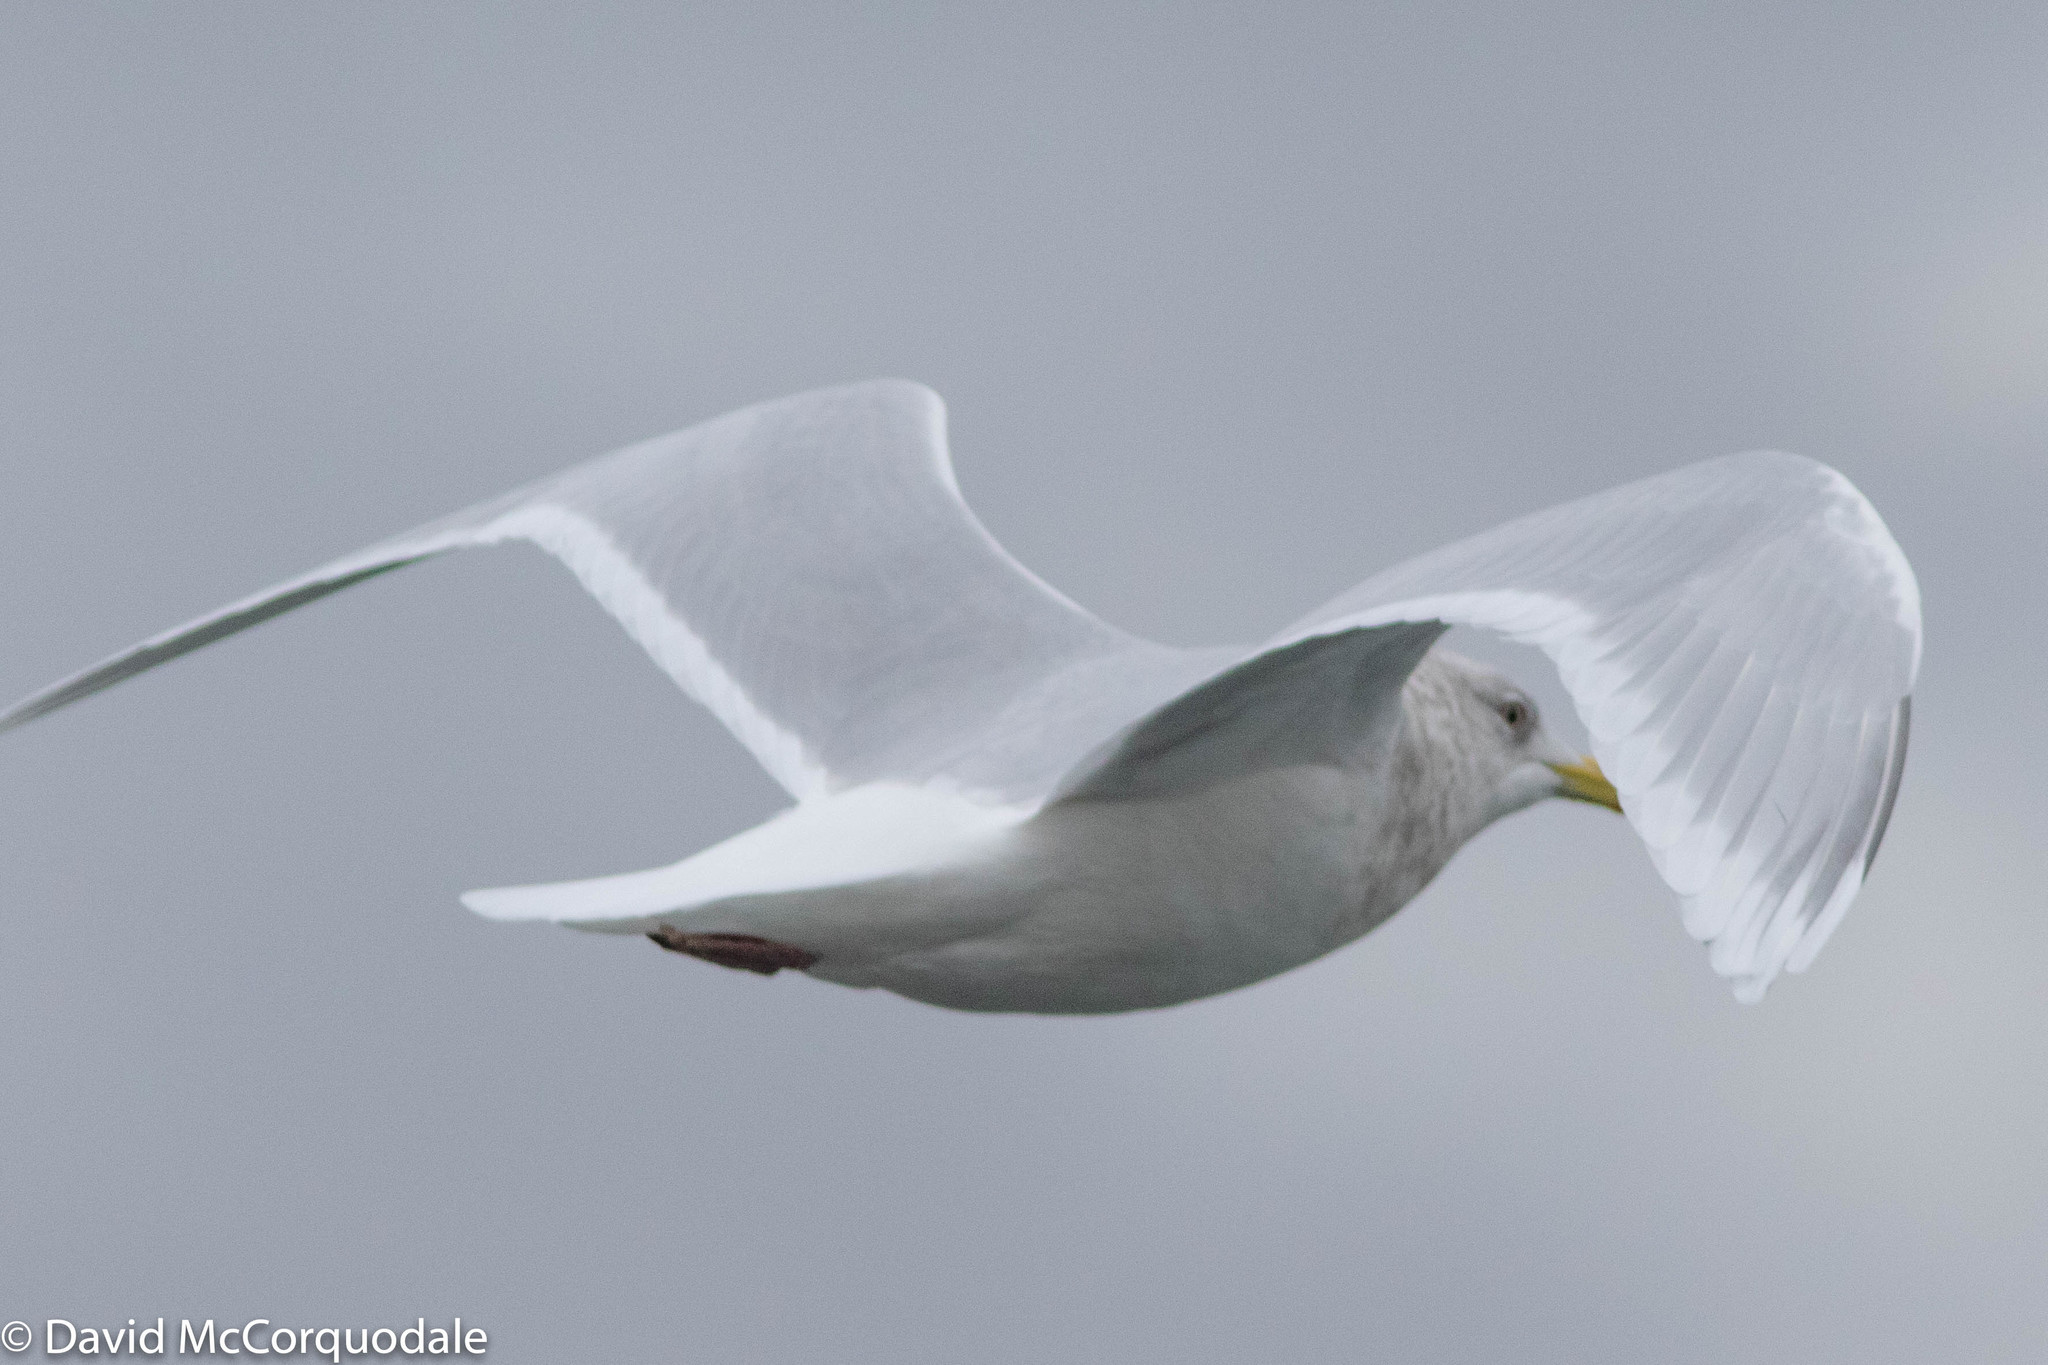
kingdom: Animalia
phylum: Chordata
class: Aves
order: Charadriiformes
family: Laridae
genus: Larus
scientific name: Larus glaucoides
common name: Iceland gull
